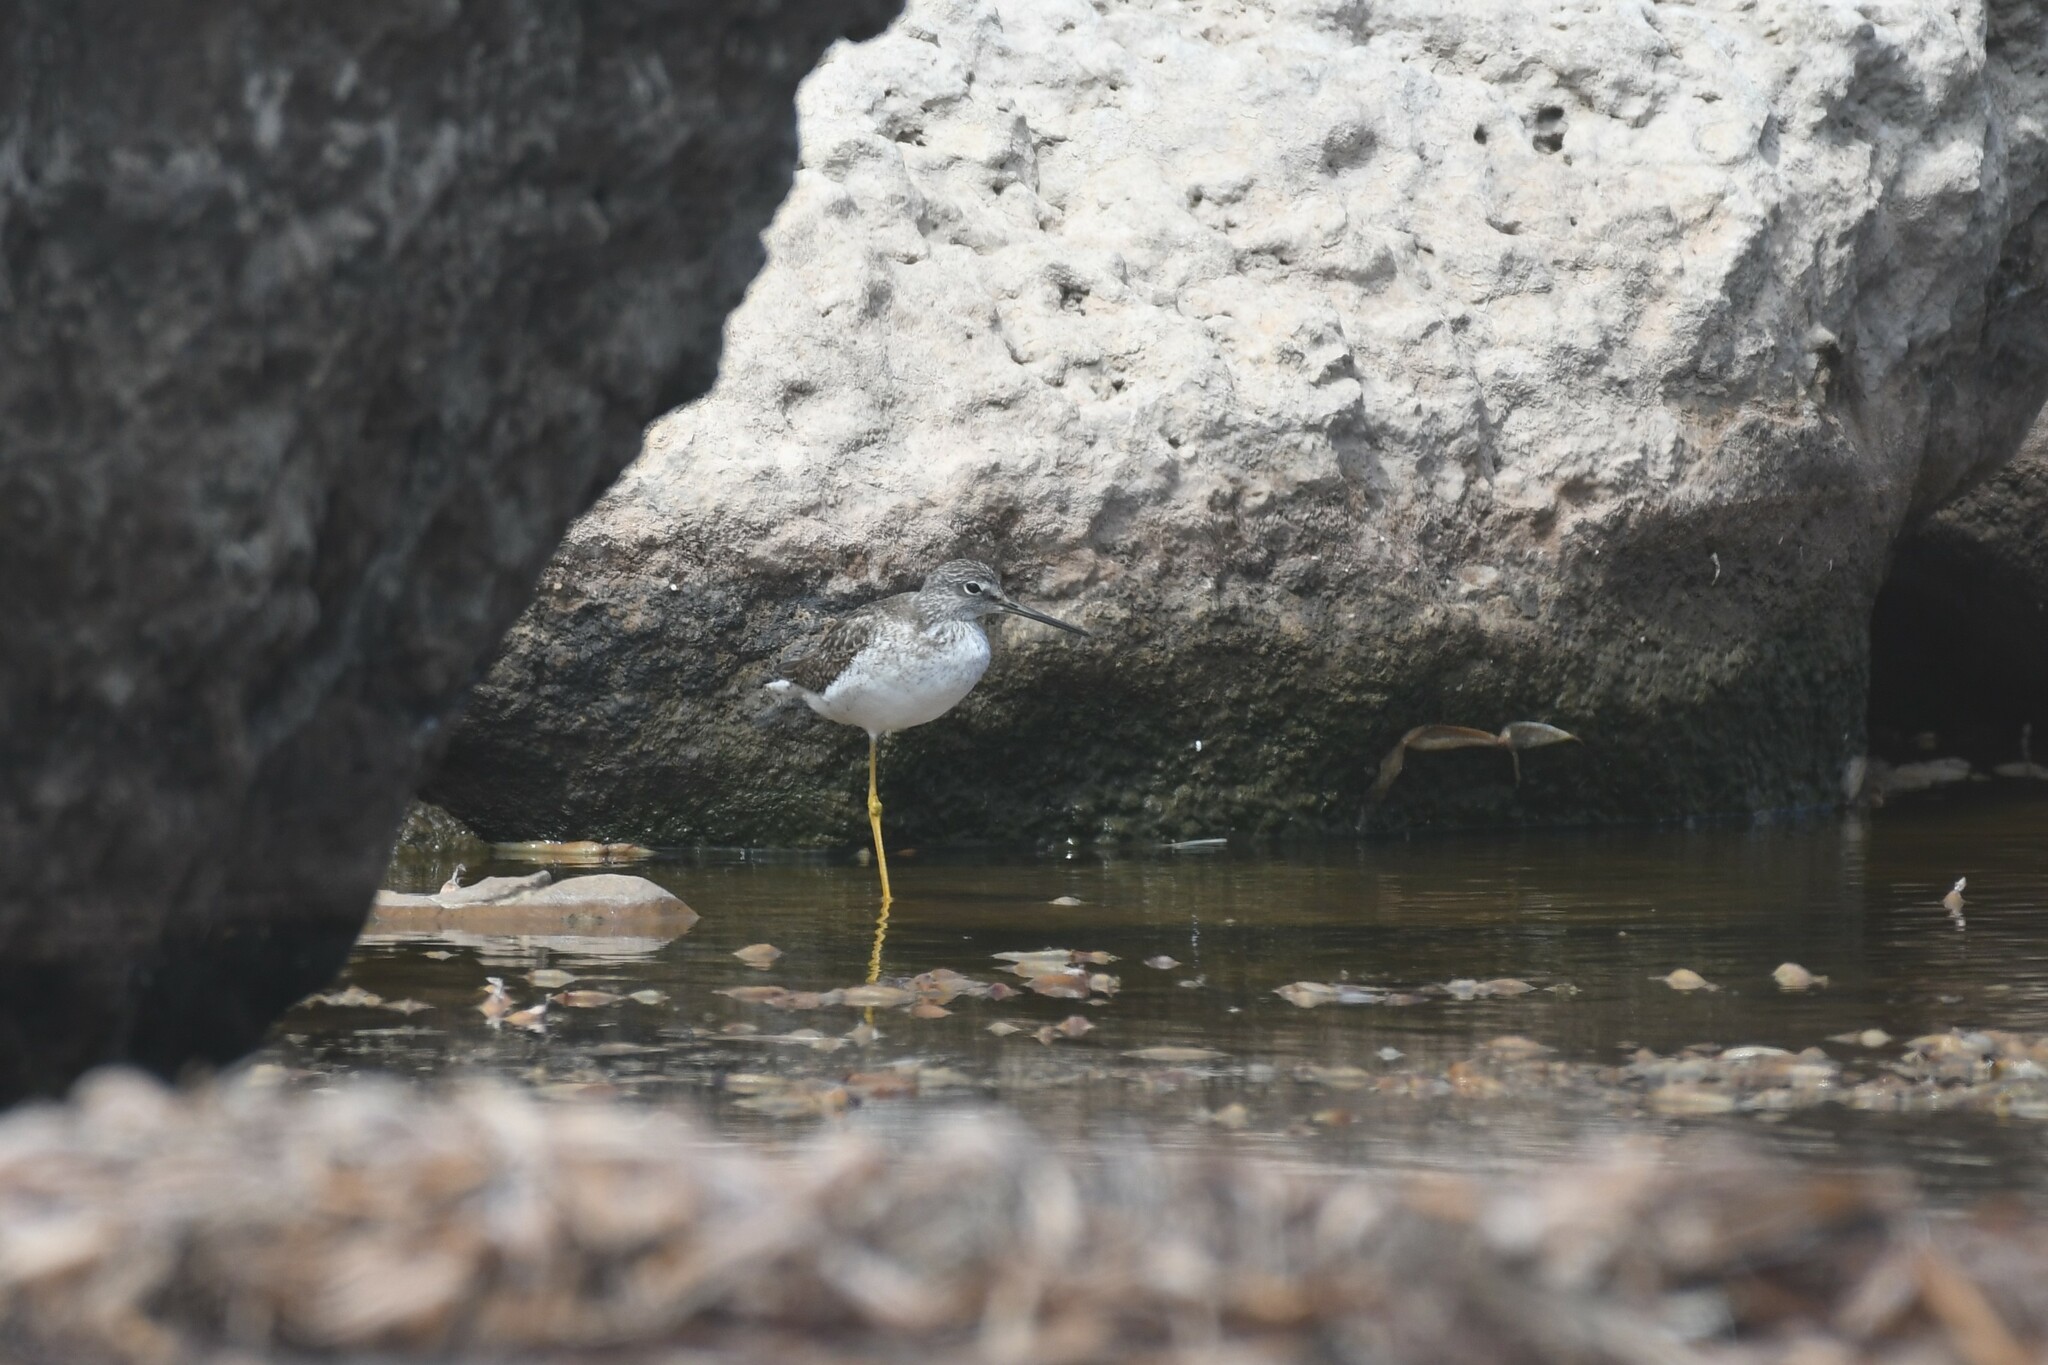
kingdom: Animalia
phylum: Chordata
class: Aves
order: Charadriiformes
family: Scolopacidae
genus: Tringa
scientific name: Tringa melanoleuca
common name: Greater yellowlegs
